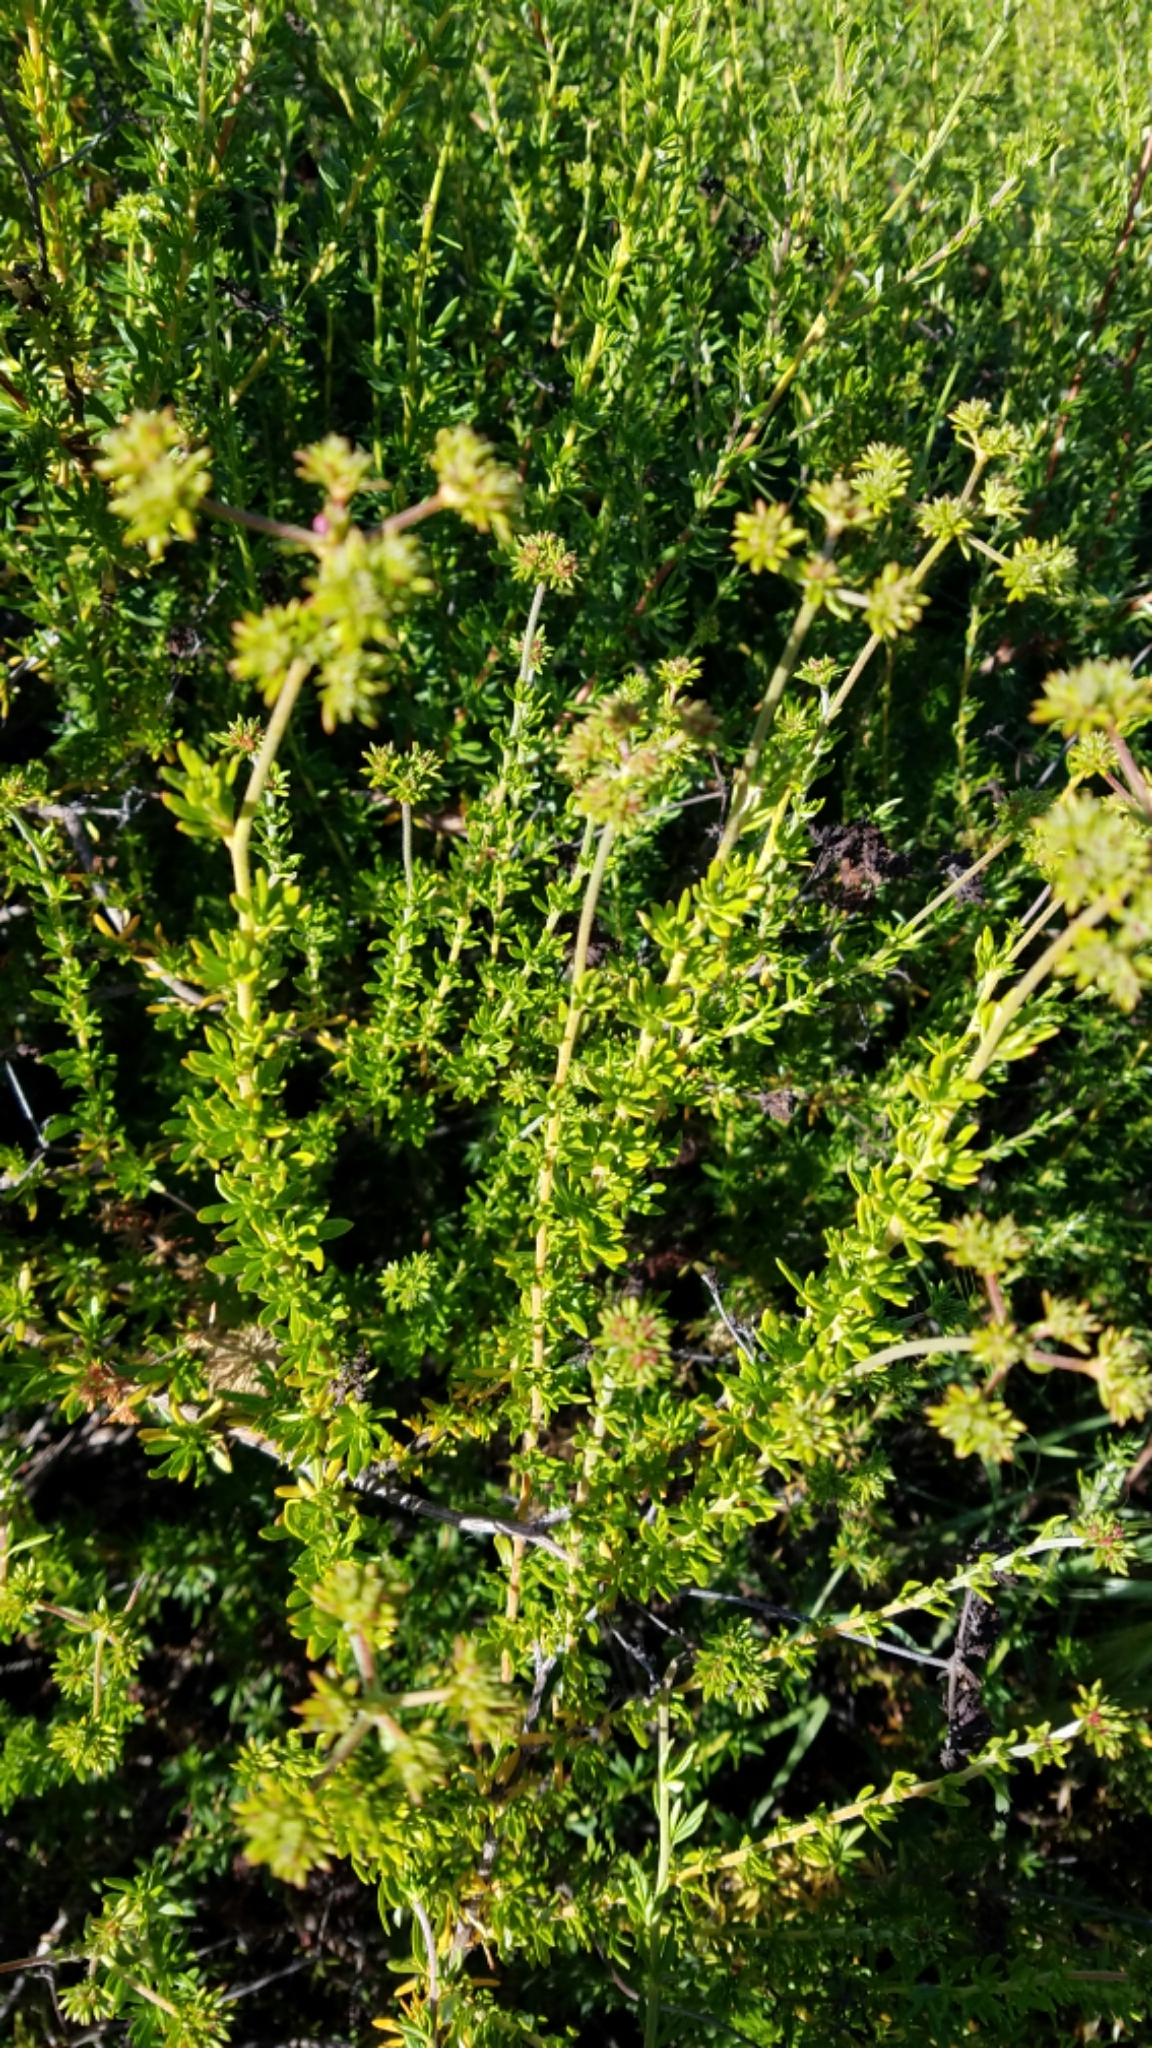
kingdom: Plantae
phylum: Tracheophyta
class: Magnoliopsida
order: Caryophyllales
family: Polygonaceae
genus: Eriogonum
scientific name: Eriogonum fasciculatum
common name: California wild buckwheat
